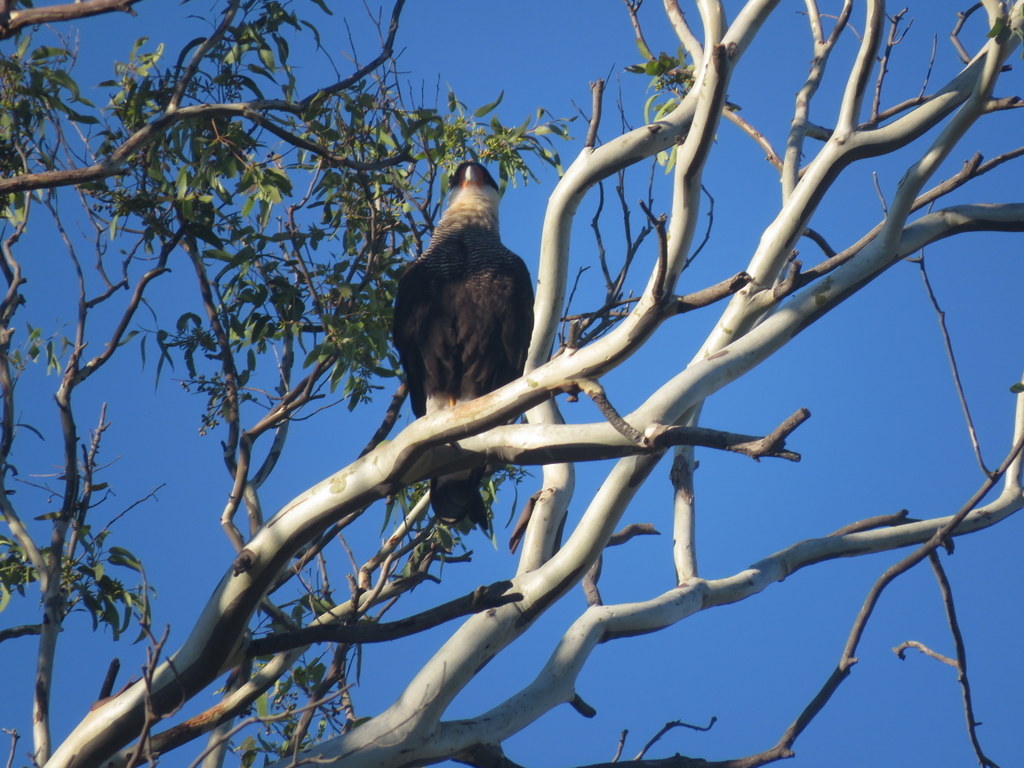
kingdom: Animalia
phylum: Chordata
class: Aves
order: Falconiformes
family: Falconidae
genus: Caracara
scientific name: Caracara plancus
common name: Southern caracara
